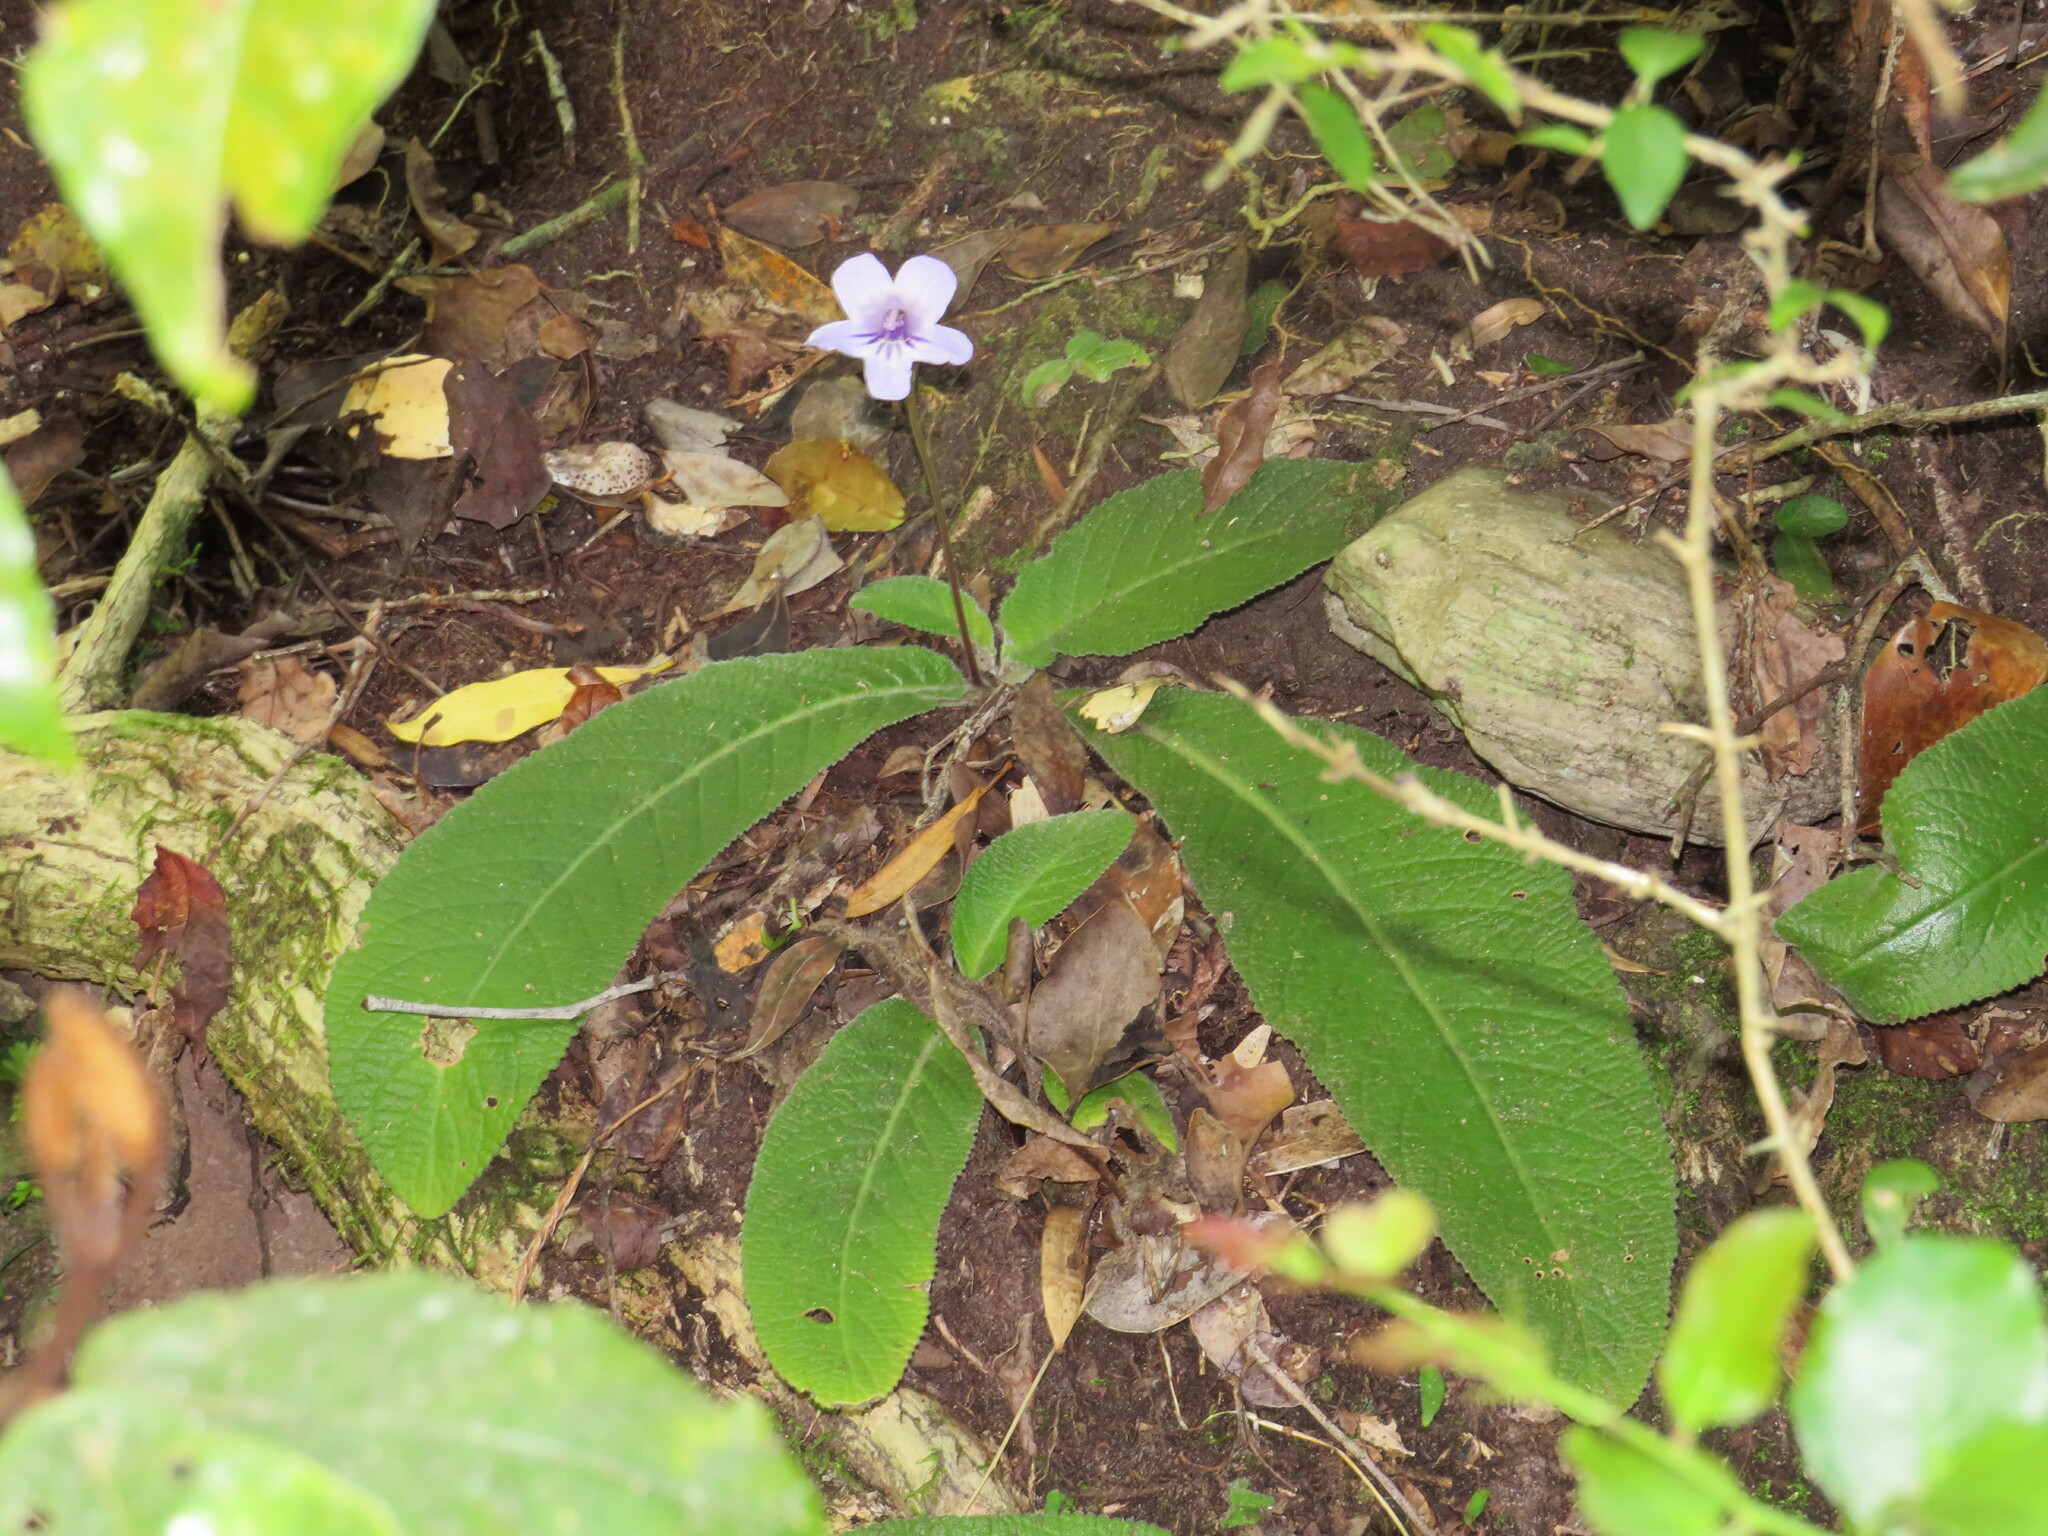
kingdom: Plantae
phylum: Tracheophyta
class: Magnoliopsida
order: Lamiales
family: Gesneriaceae
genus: Streptocarpus
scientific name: Streptocarpus rexii
